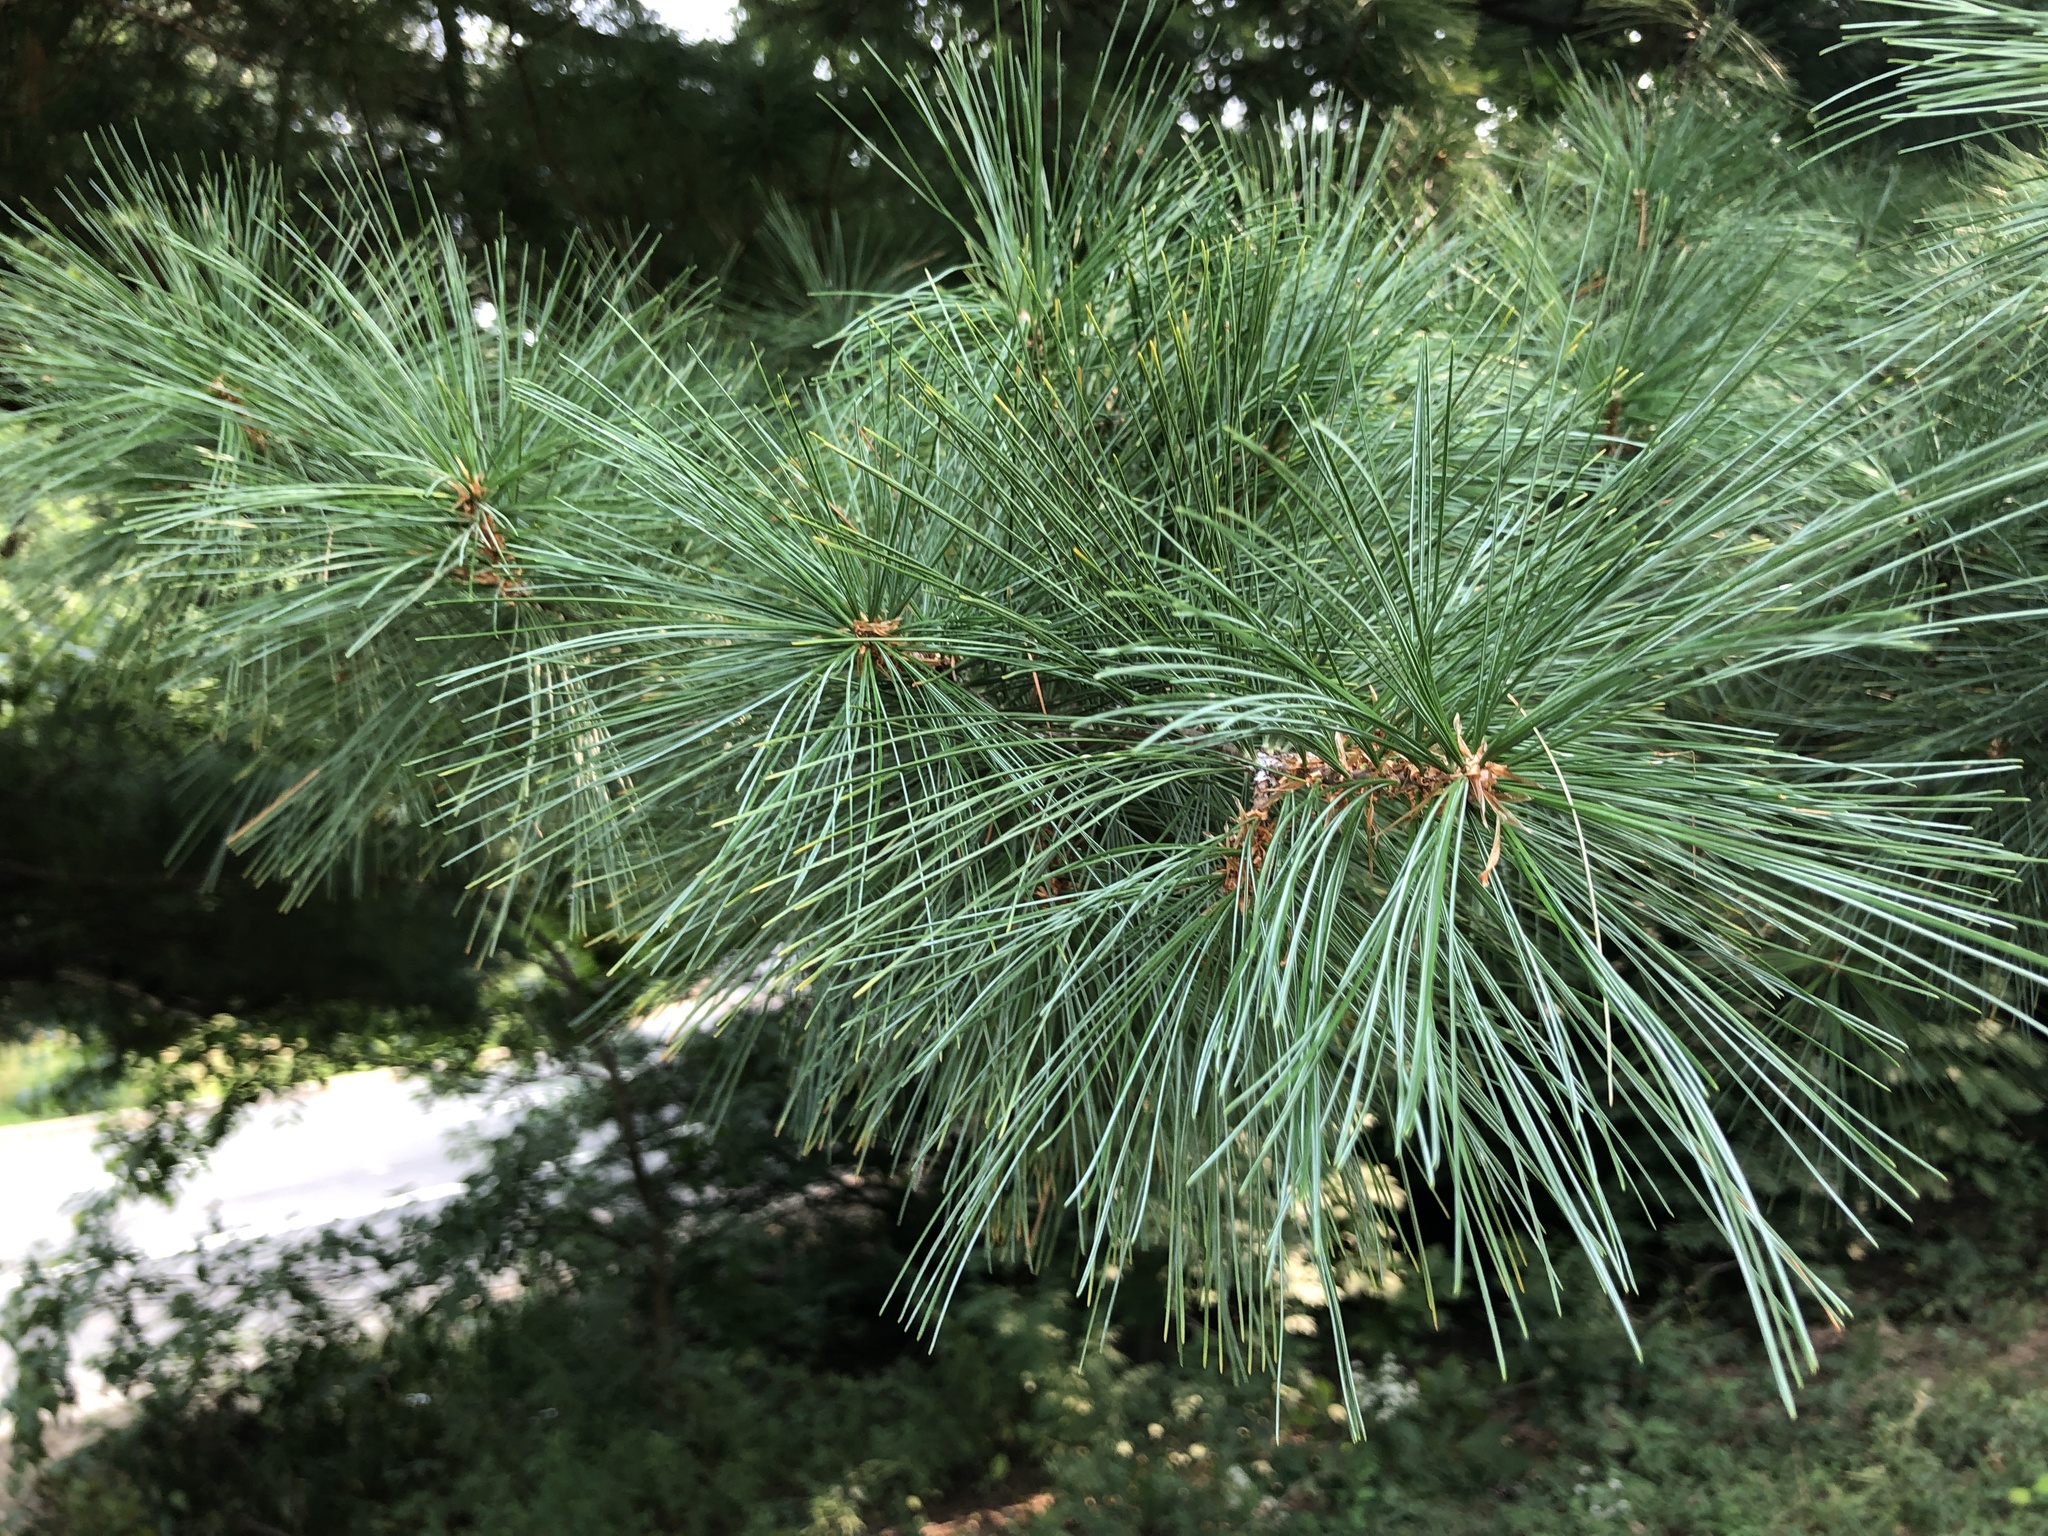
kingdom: Plantae
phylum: Tracheophyta
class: Pinopsida
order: Pinales
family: Pinaceae
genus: Pinus
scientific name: Pinus strobus
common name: Weymouth pine
